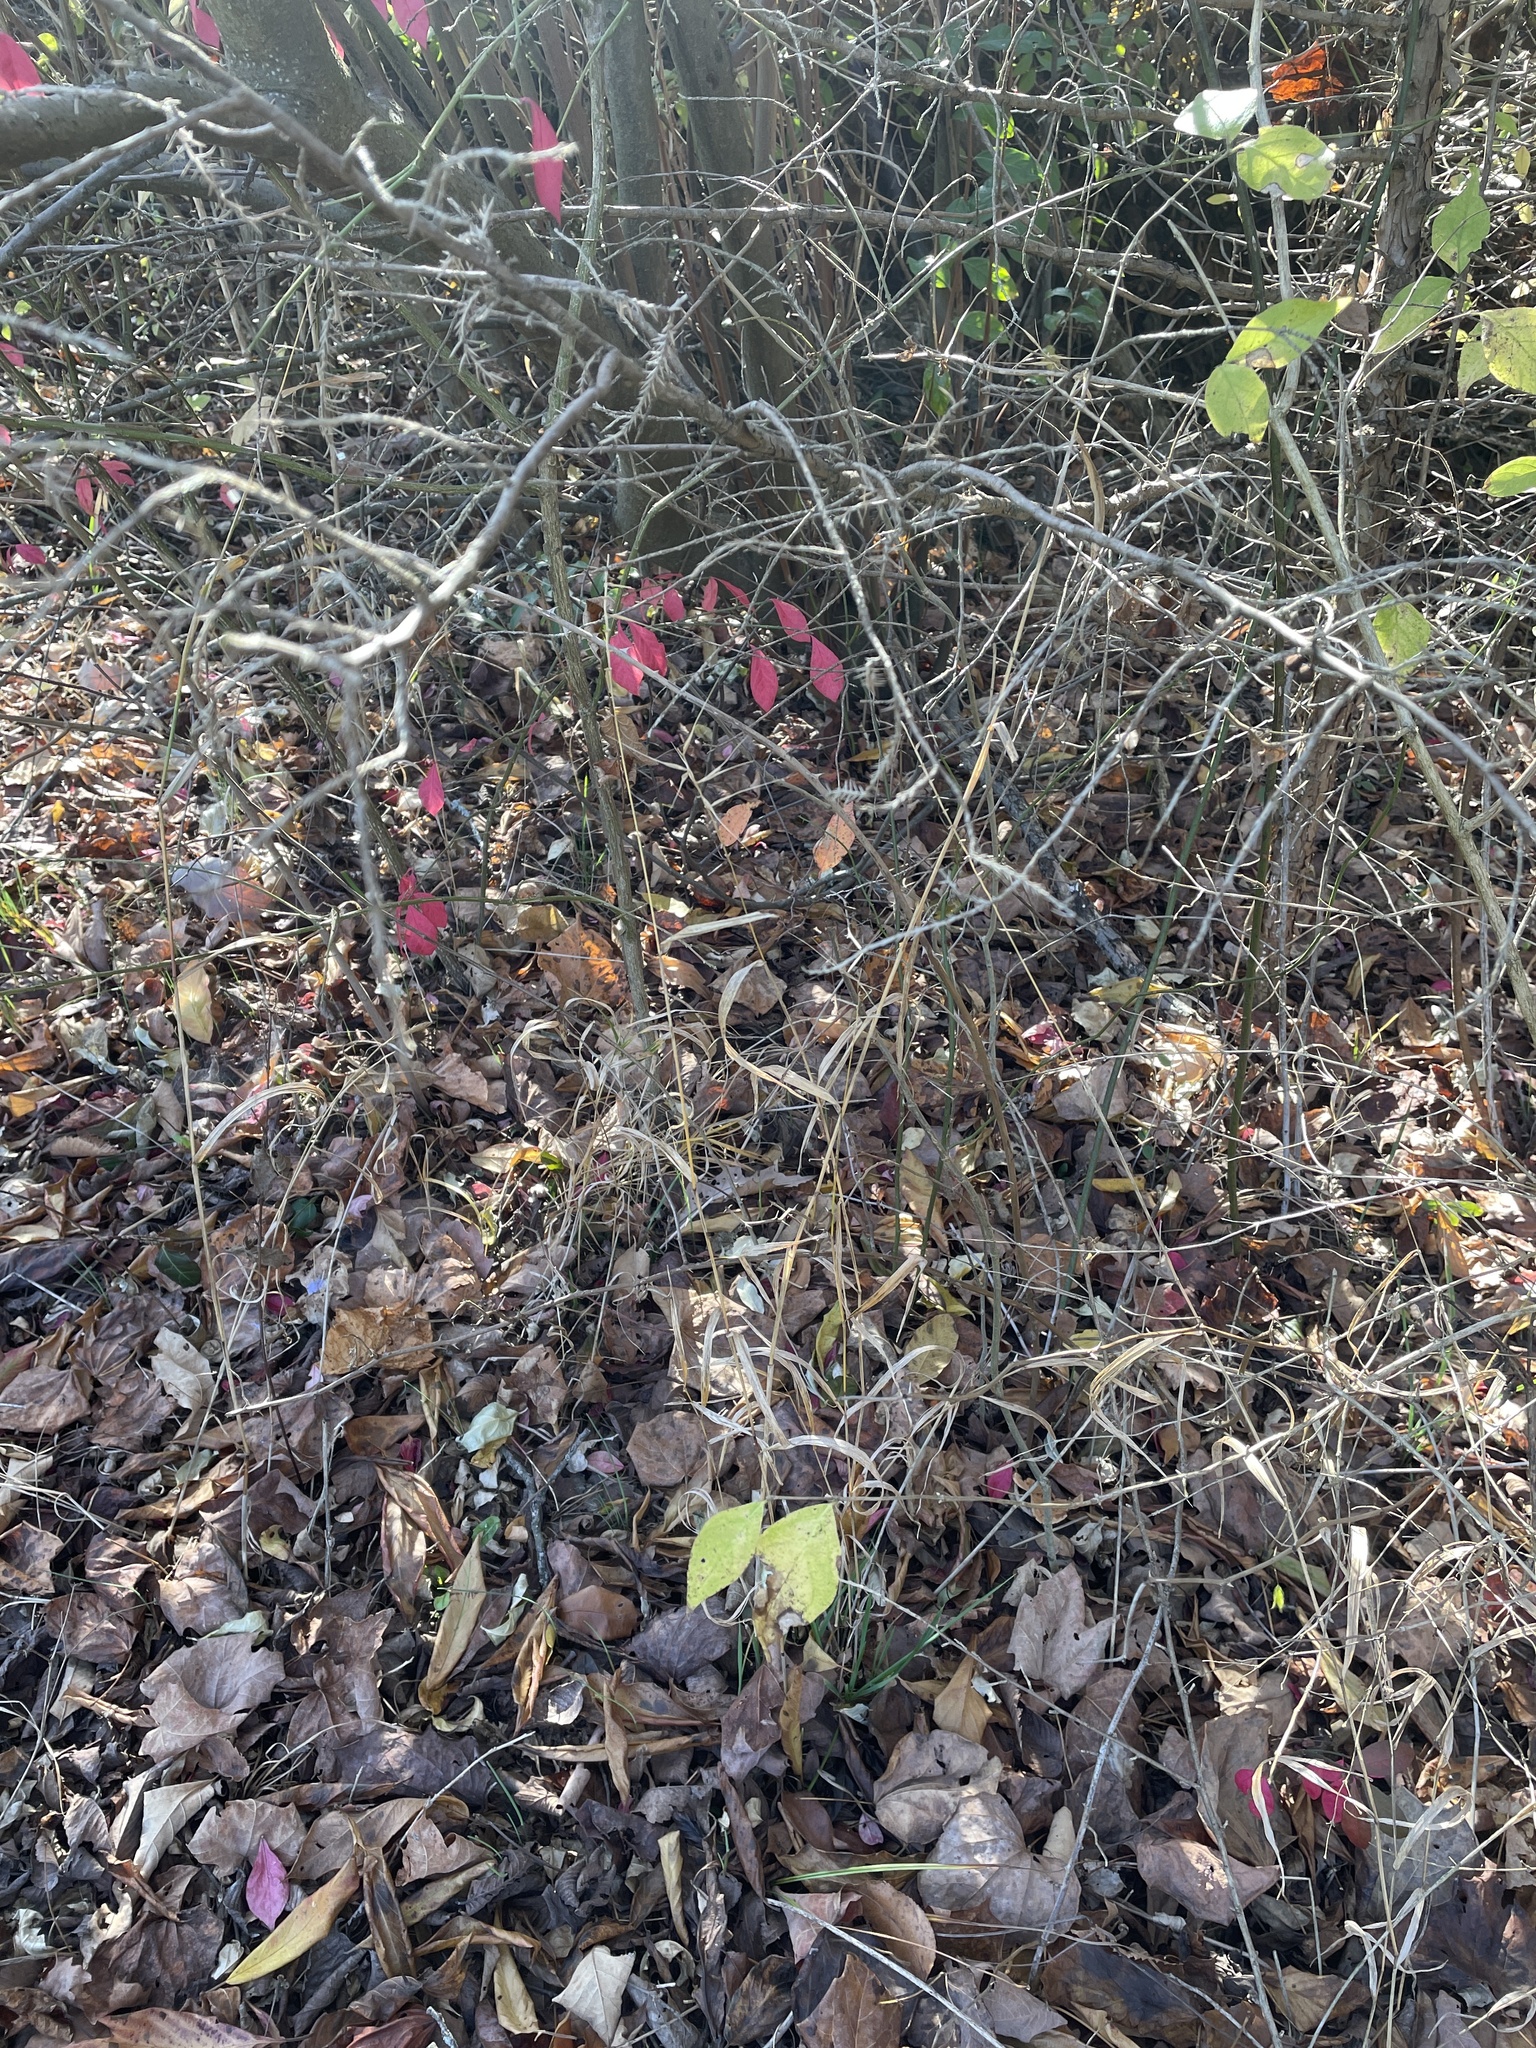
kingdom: Plantae
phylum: Tracheophyta
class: Liliopsida
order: Poales
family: Poaceae
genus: Elymus
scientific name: Elymus hystrix
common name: Bottlebrush grass
